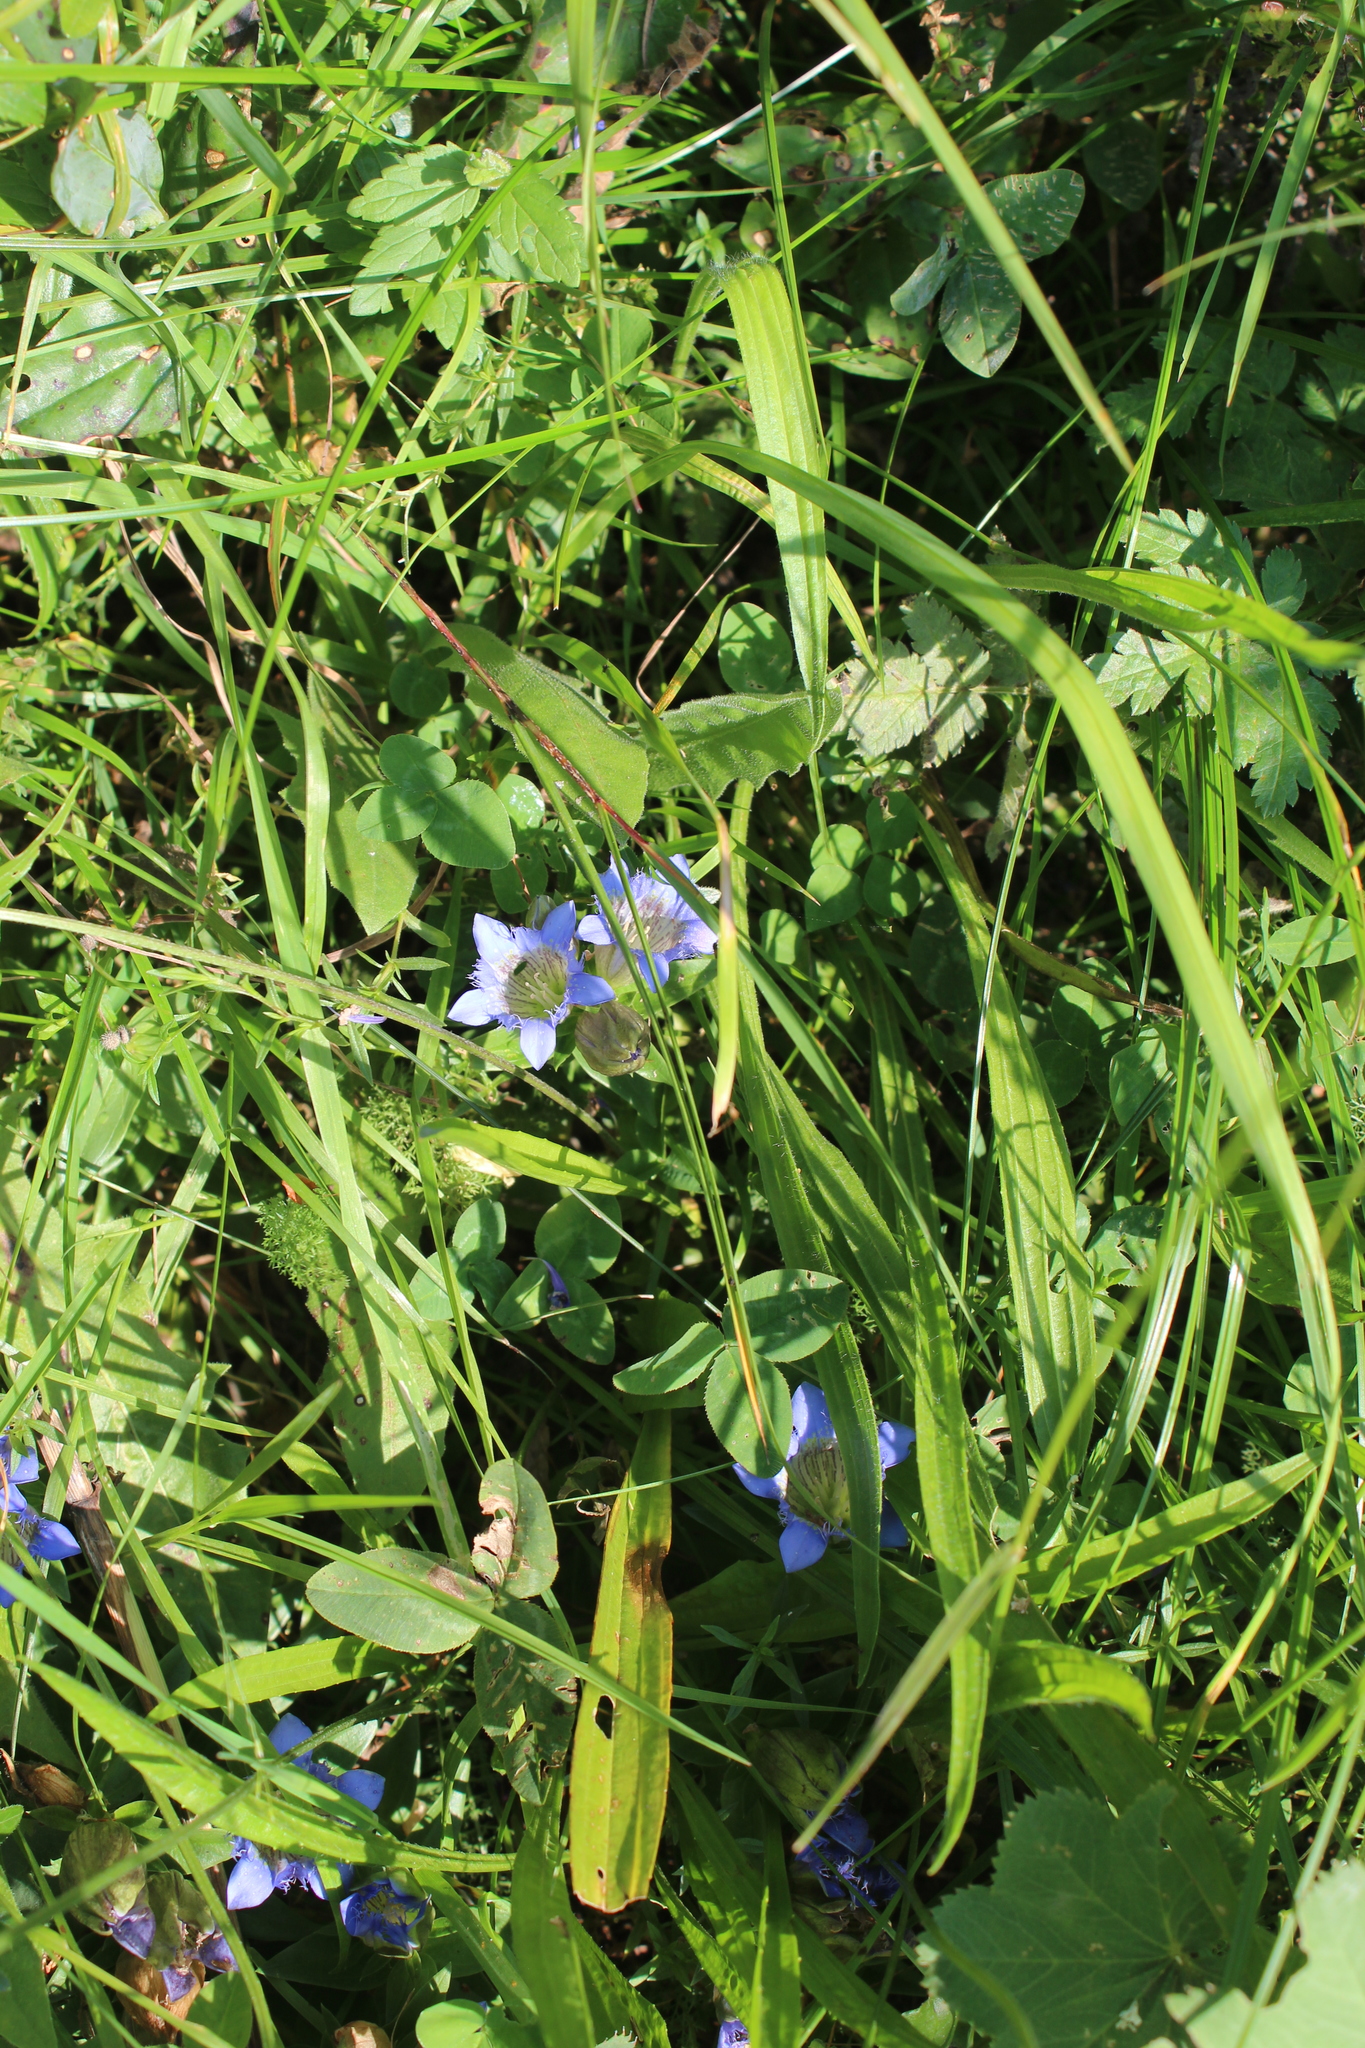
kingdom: Plantae
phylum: Tracheophyta
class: Magnoliopsida
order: Gentianales
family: Gentianaceae
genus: Gentiana
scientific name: Gentiana septemfida
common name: Crested gentian
